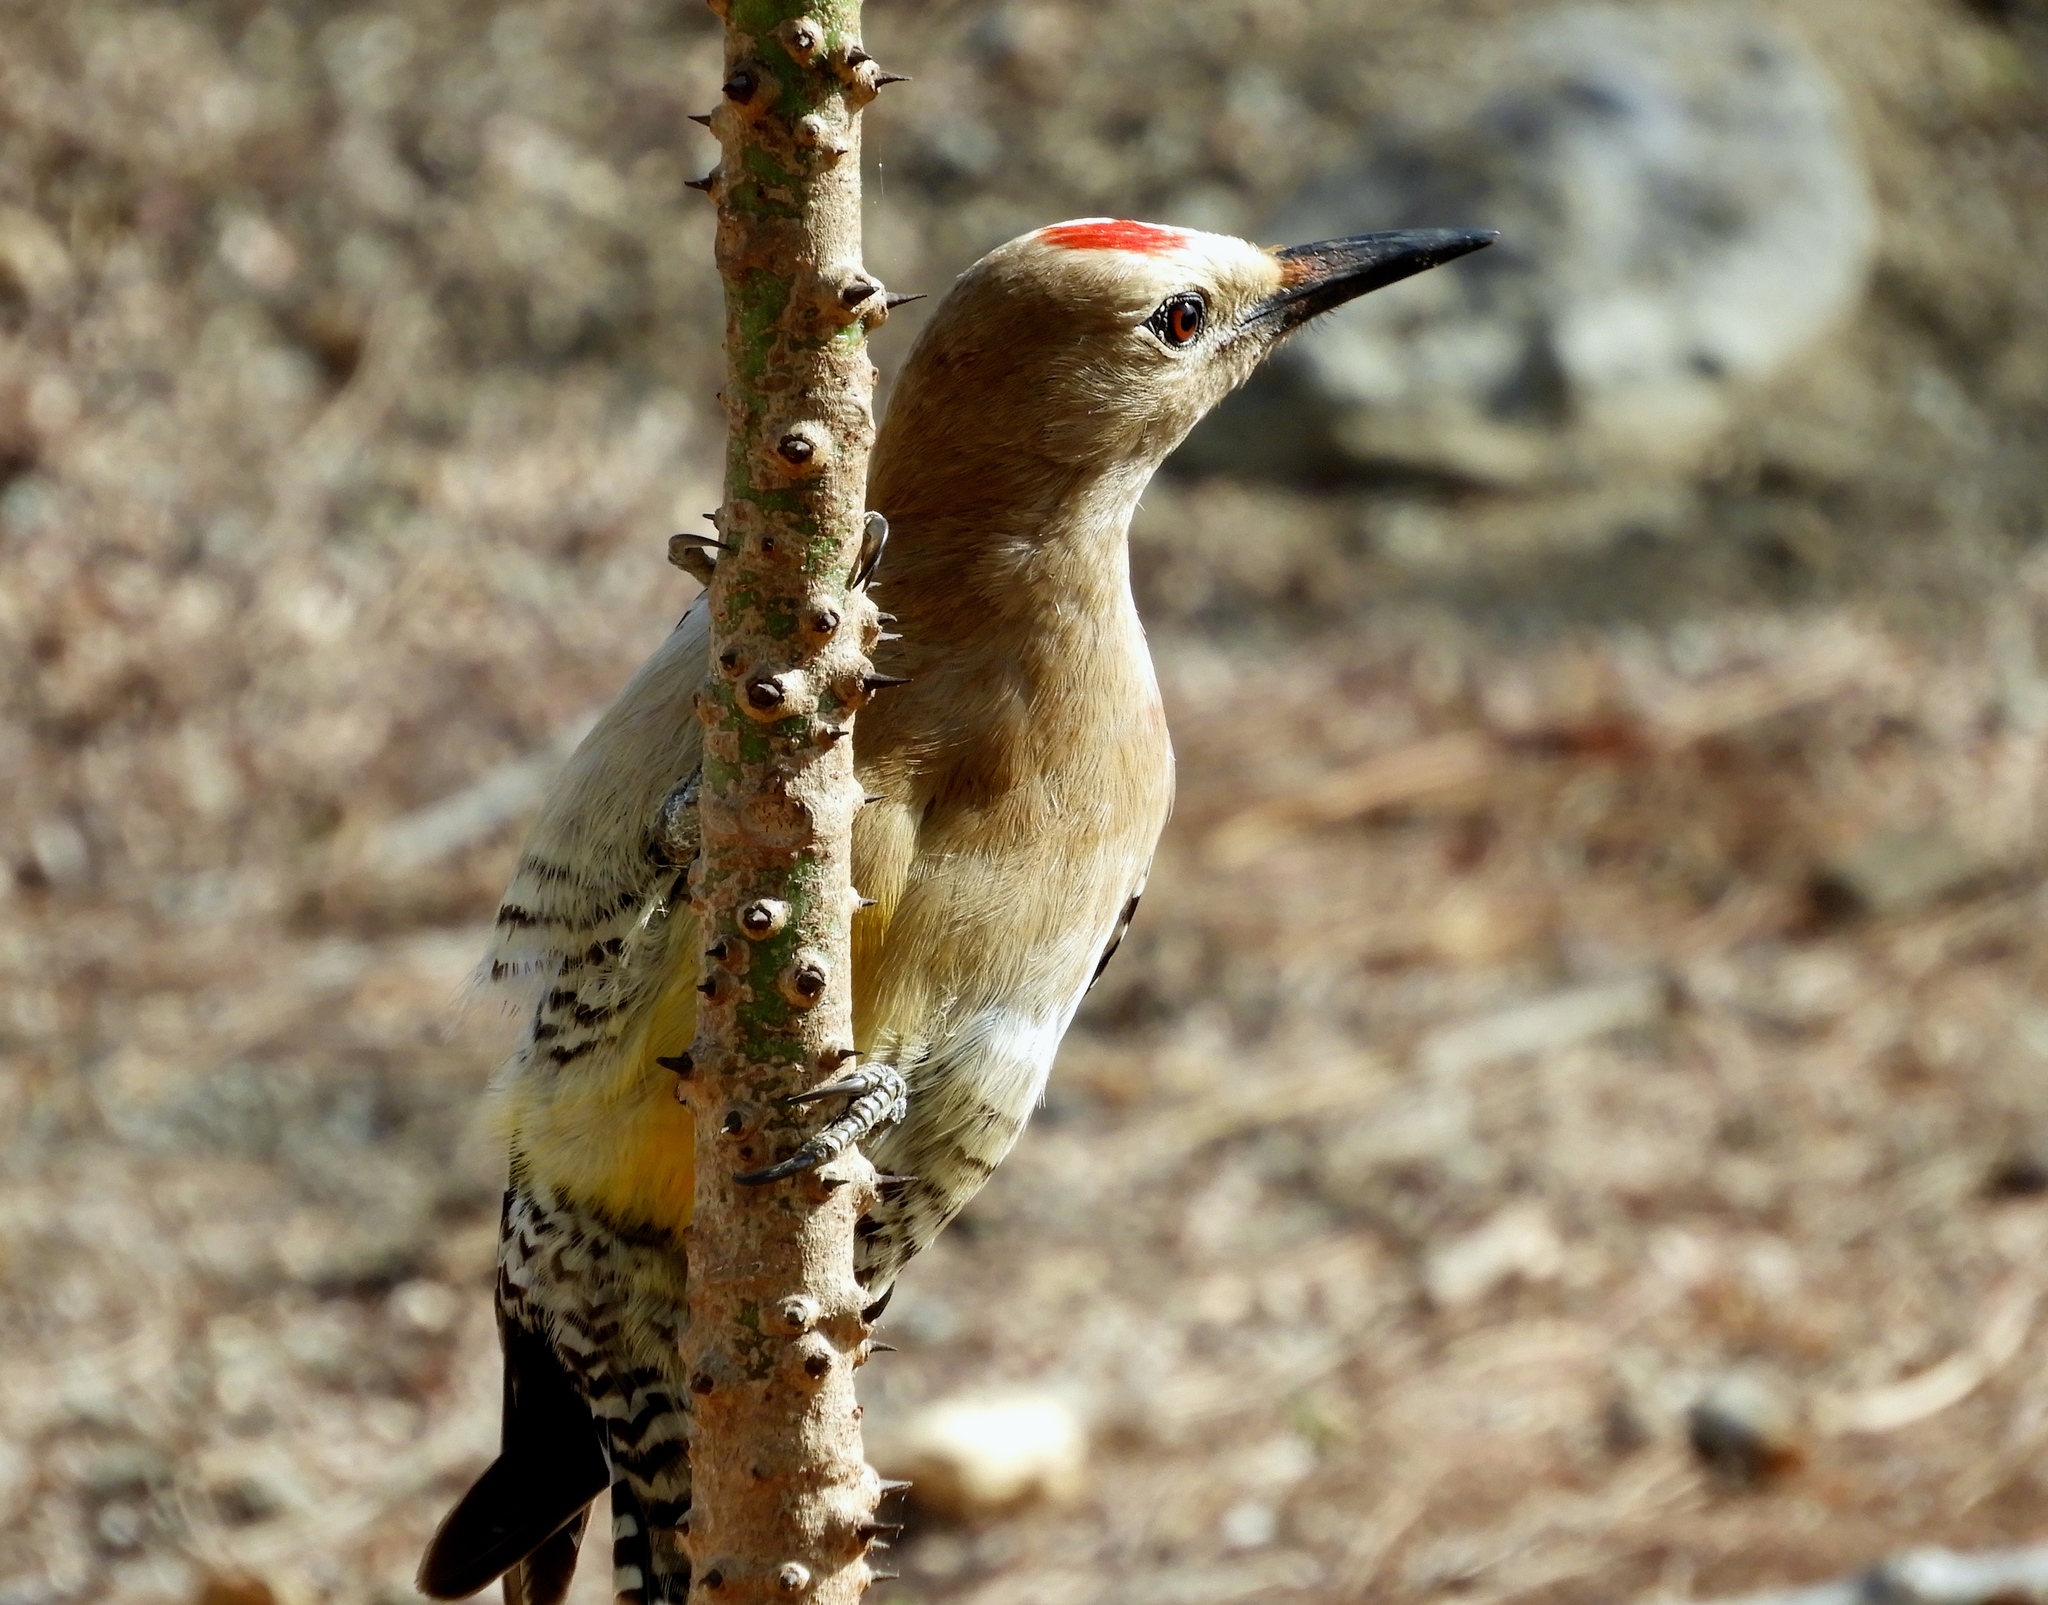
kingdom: Animalia
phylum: Chordata
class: Aves
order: Piciformes
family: Picidae
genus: Melanerpes
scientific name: Melanerpes uropygialis
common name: Gila woodpecker
